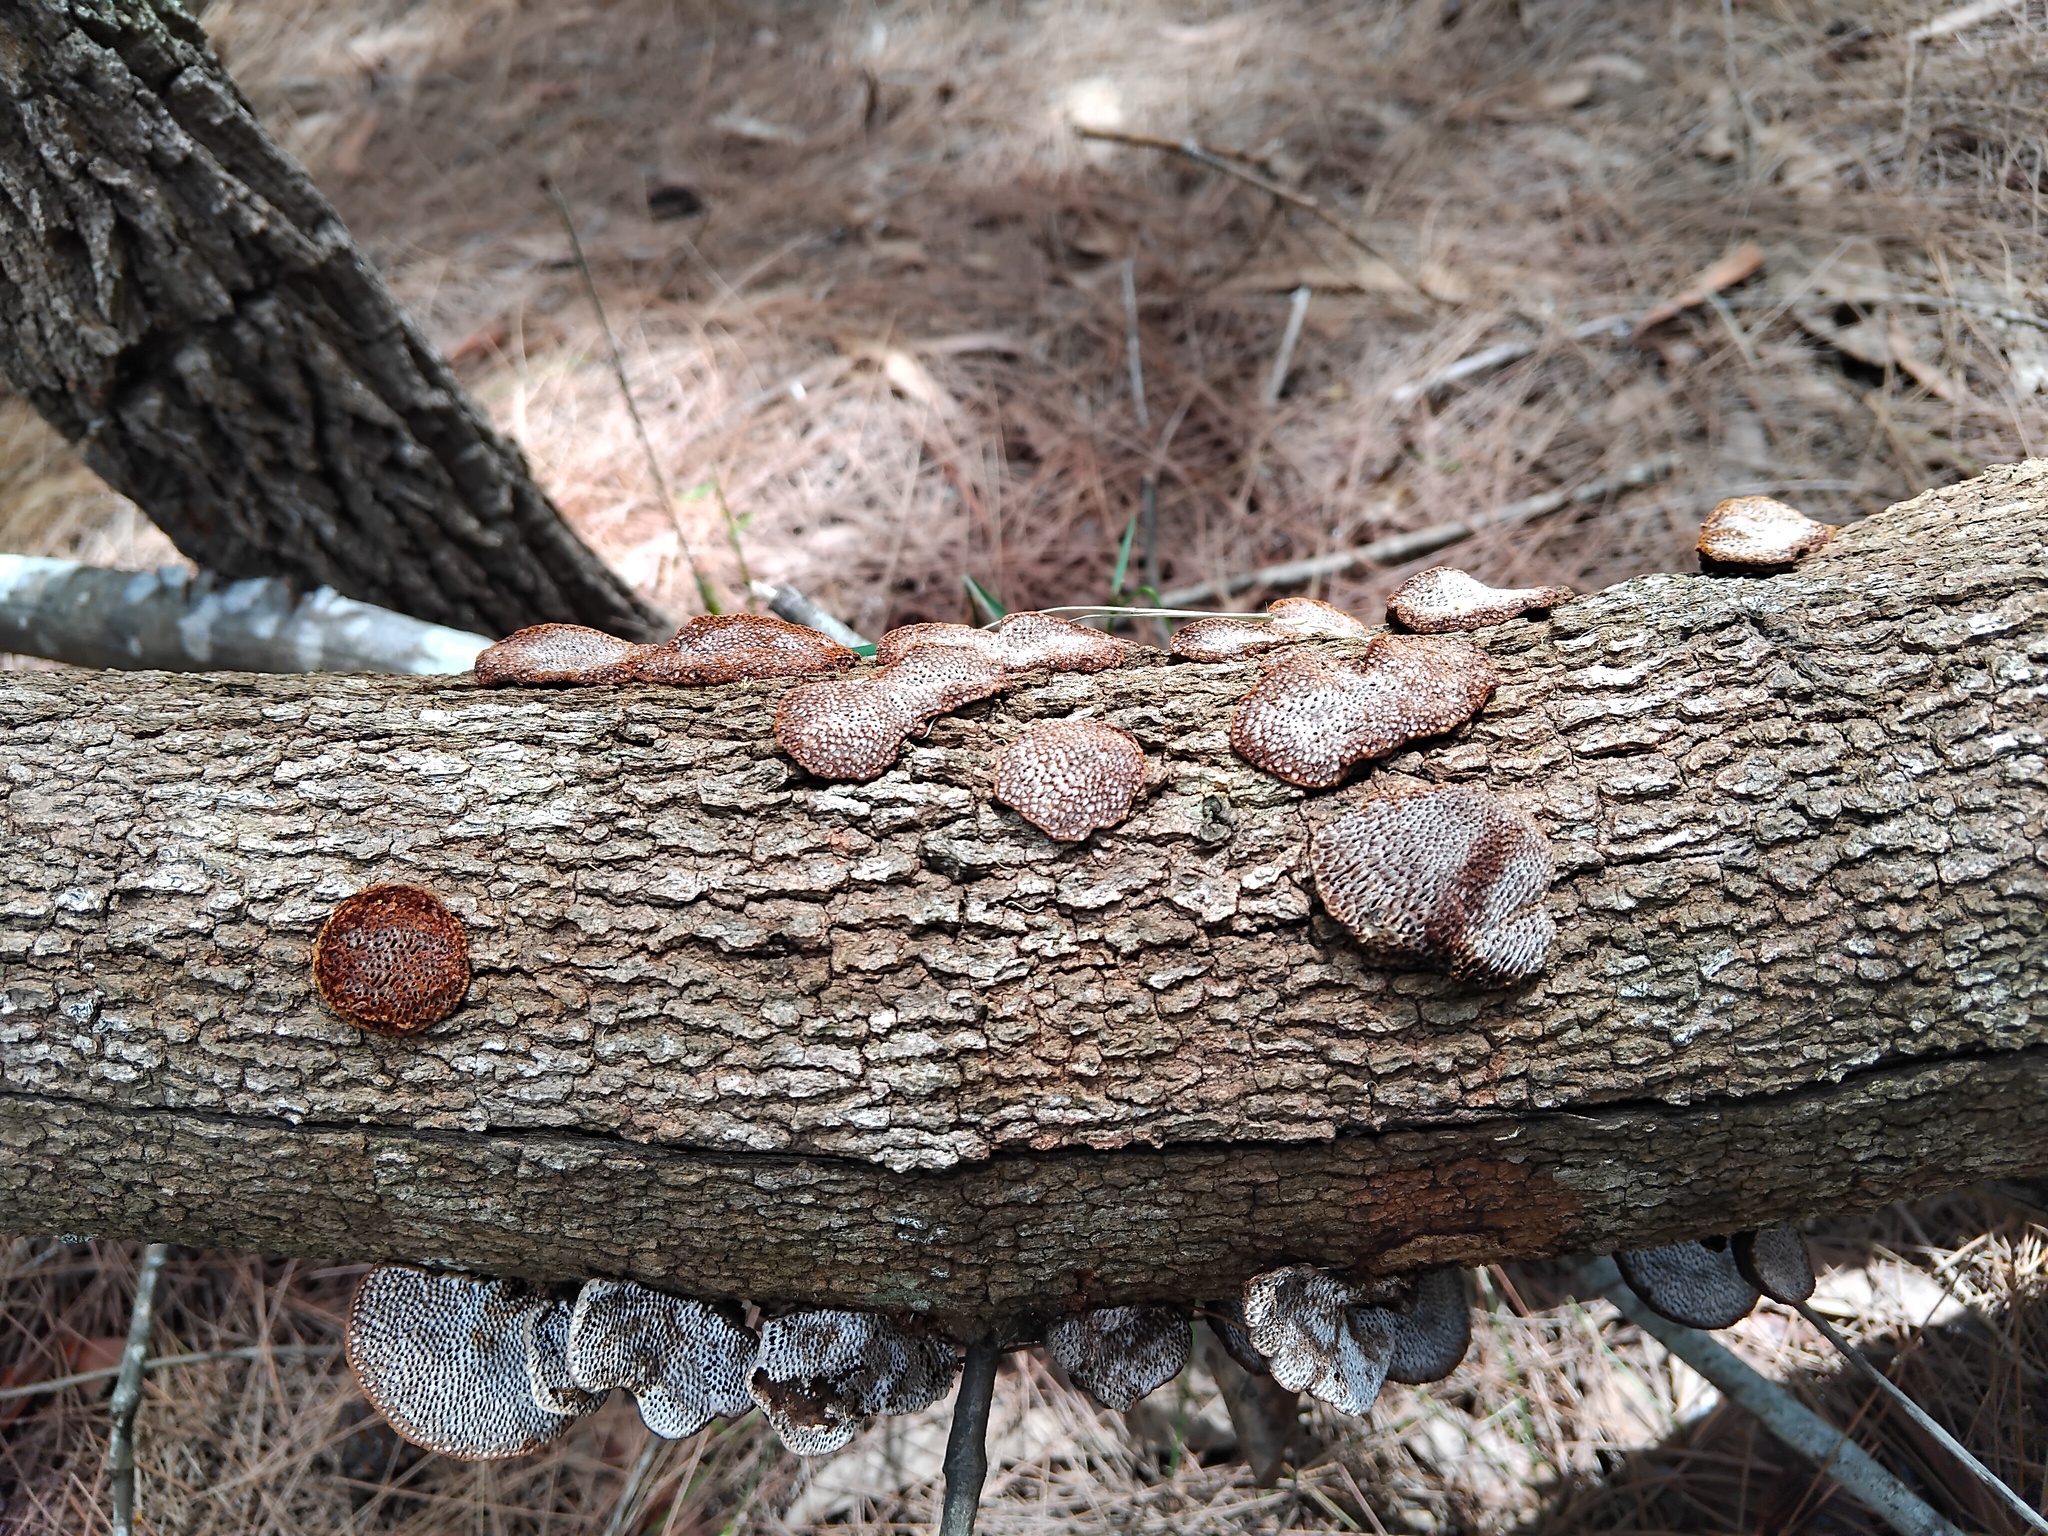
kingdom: Fungi
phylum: Basidiomycota
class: Agaricomycetes
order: Polyporales
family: Polyporaceae
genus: Phaeotrametes
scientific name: Phaeotrametes decipiens
